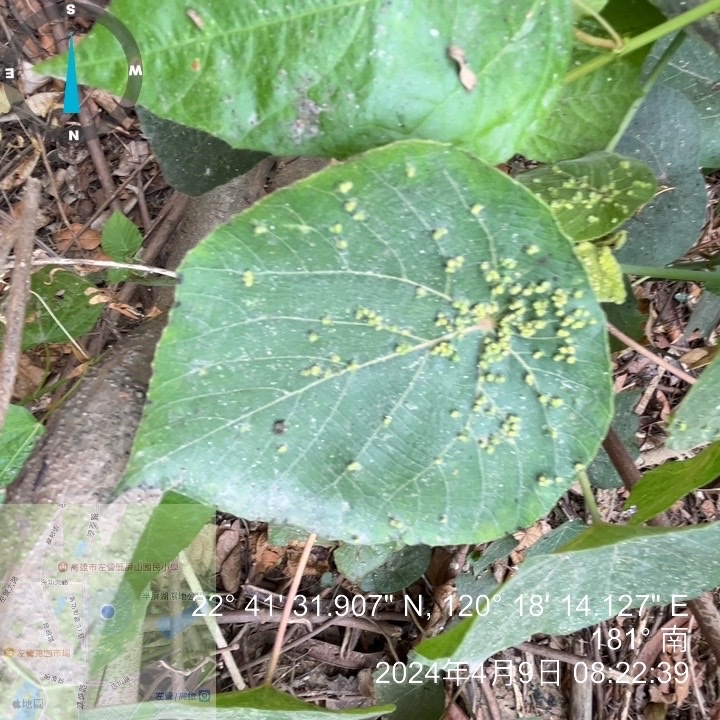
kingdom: Plantae
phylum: Tracheophyta
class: Magnoliopsida
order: Malpighiales
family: Euphorbiaceae
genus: Macaranga
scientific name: Macaranga tanarius
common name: Parasol leaf tree
